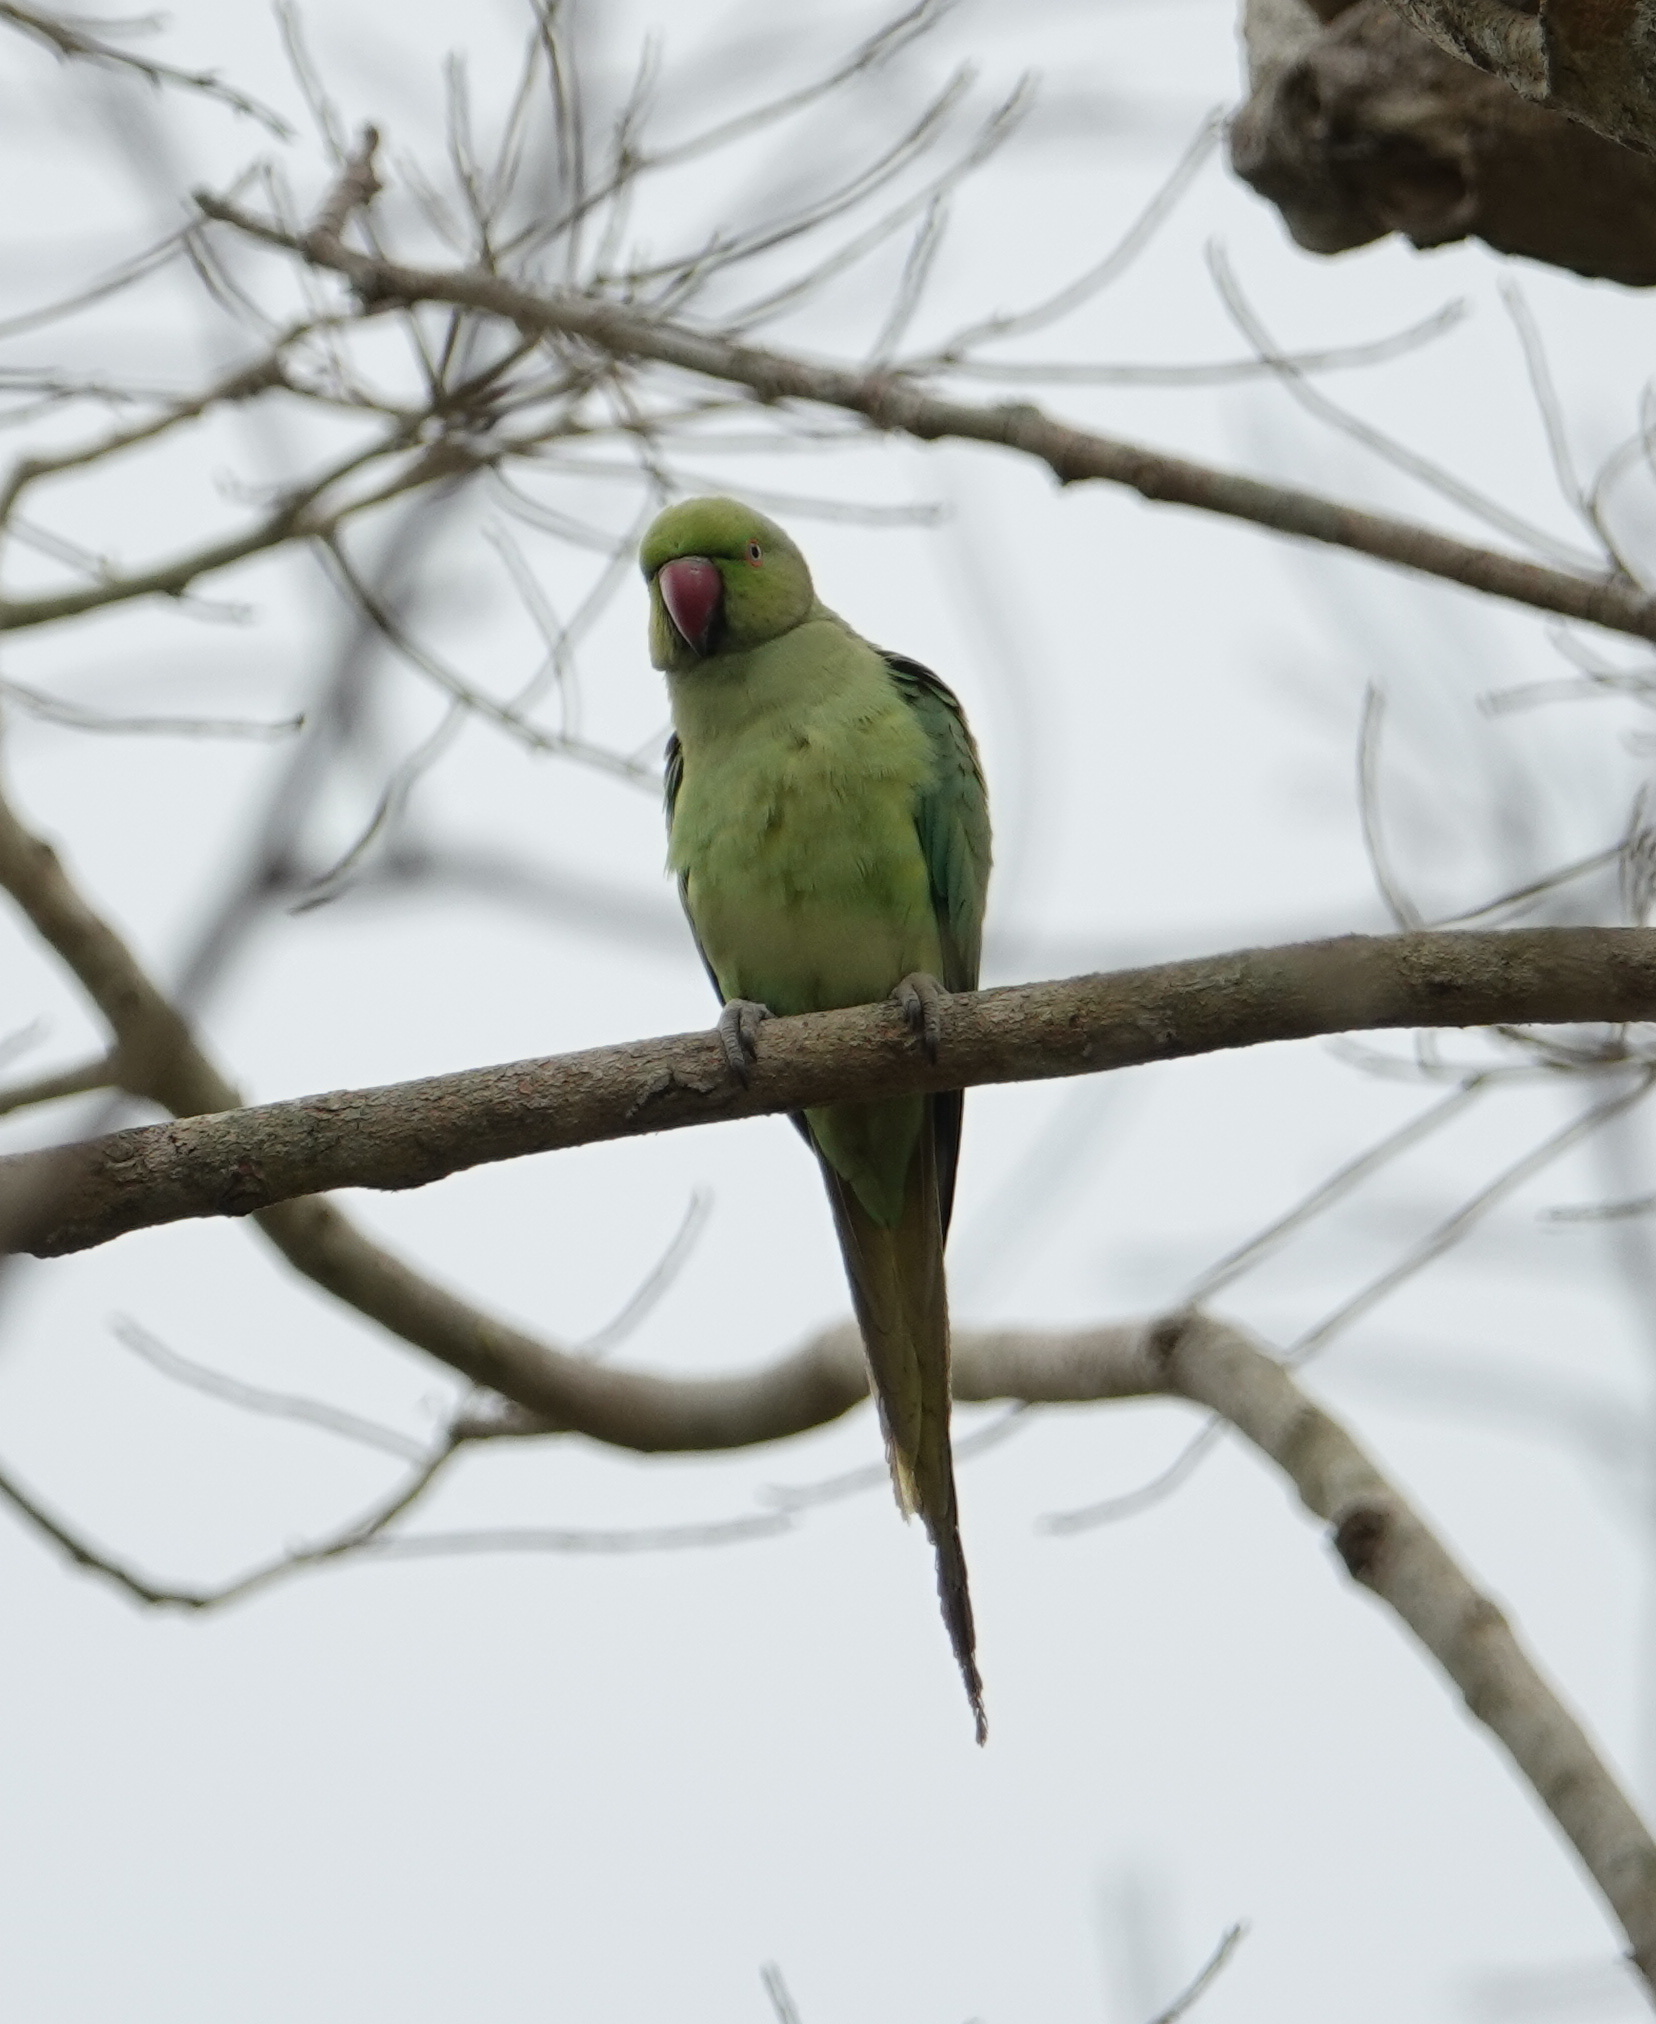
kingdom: Animalia
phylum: Chordata
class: Aves
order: Psittaciformes
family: Psittacidae
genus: Psittacula
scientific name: Psittacula krameri
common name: Rose-ringed parakeet
